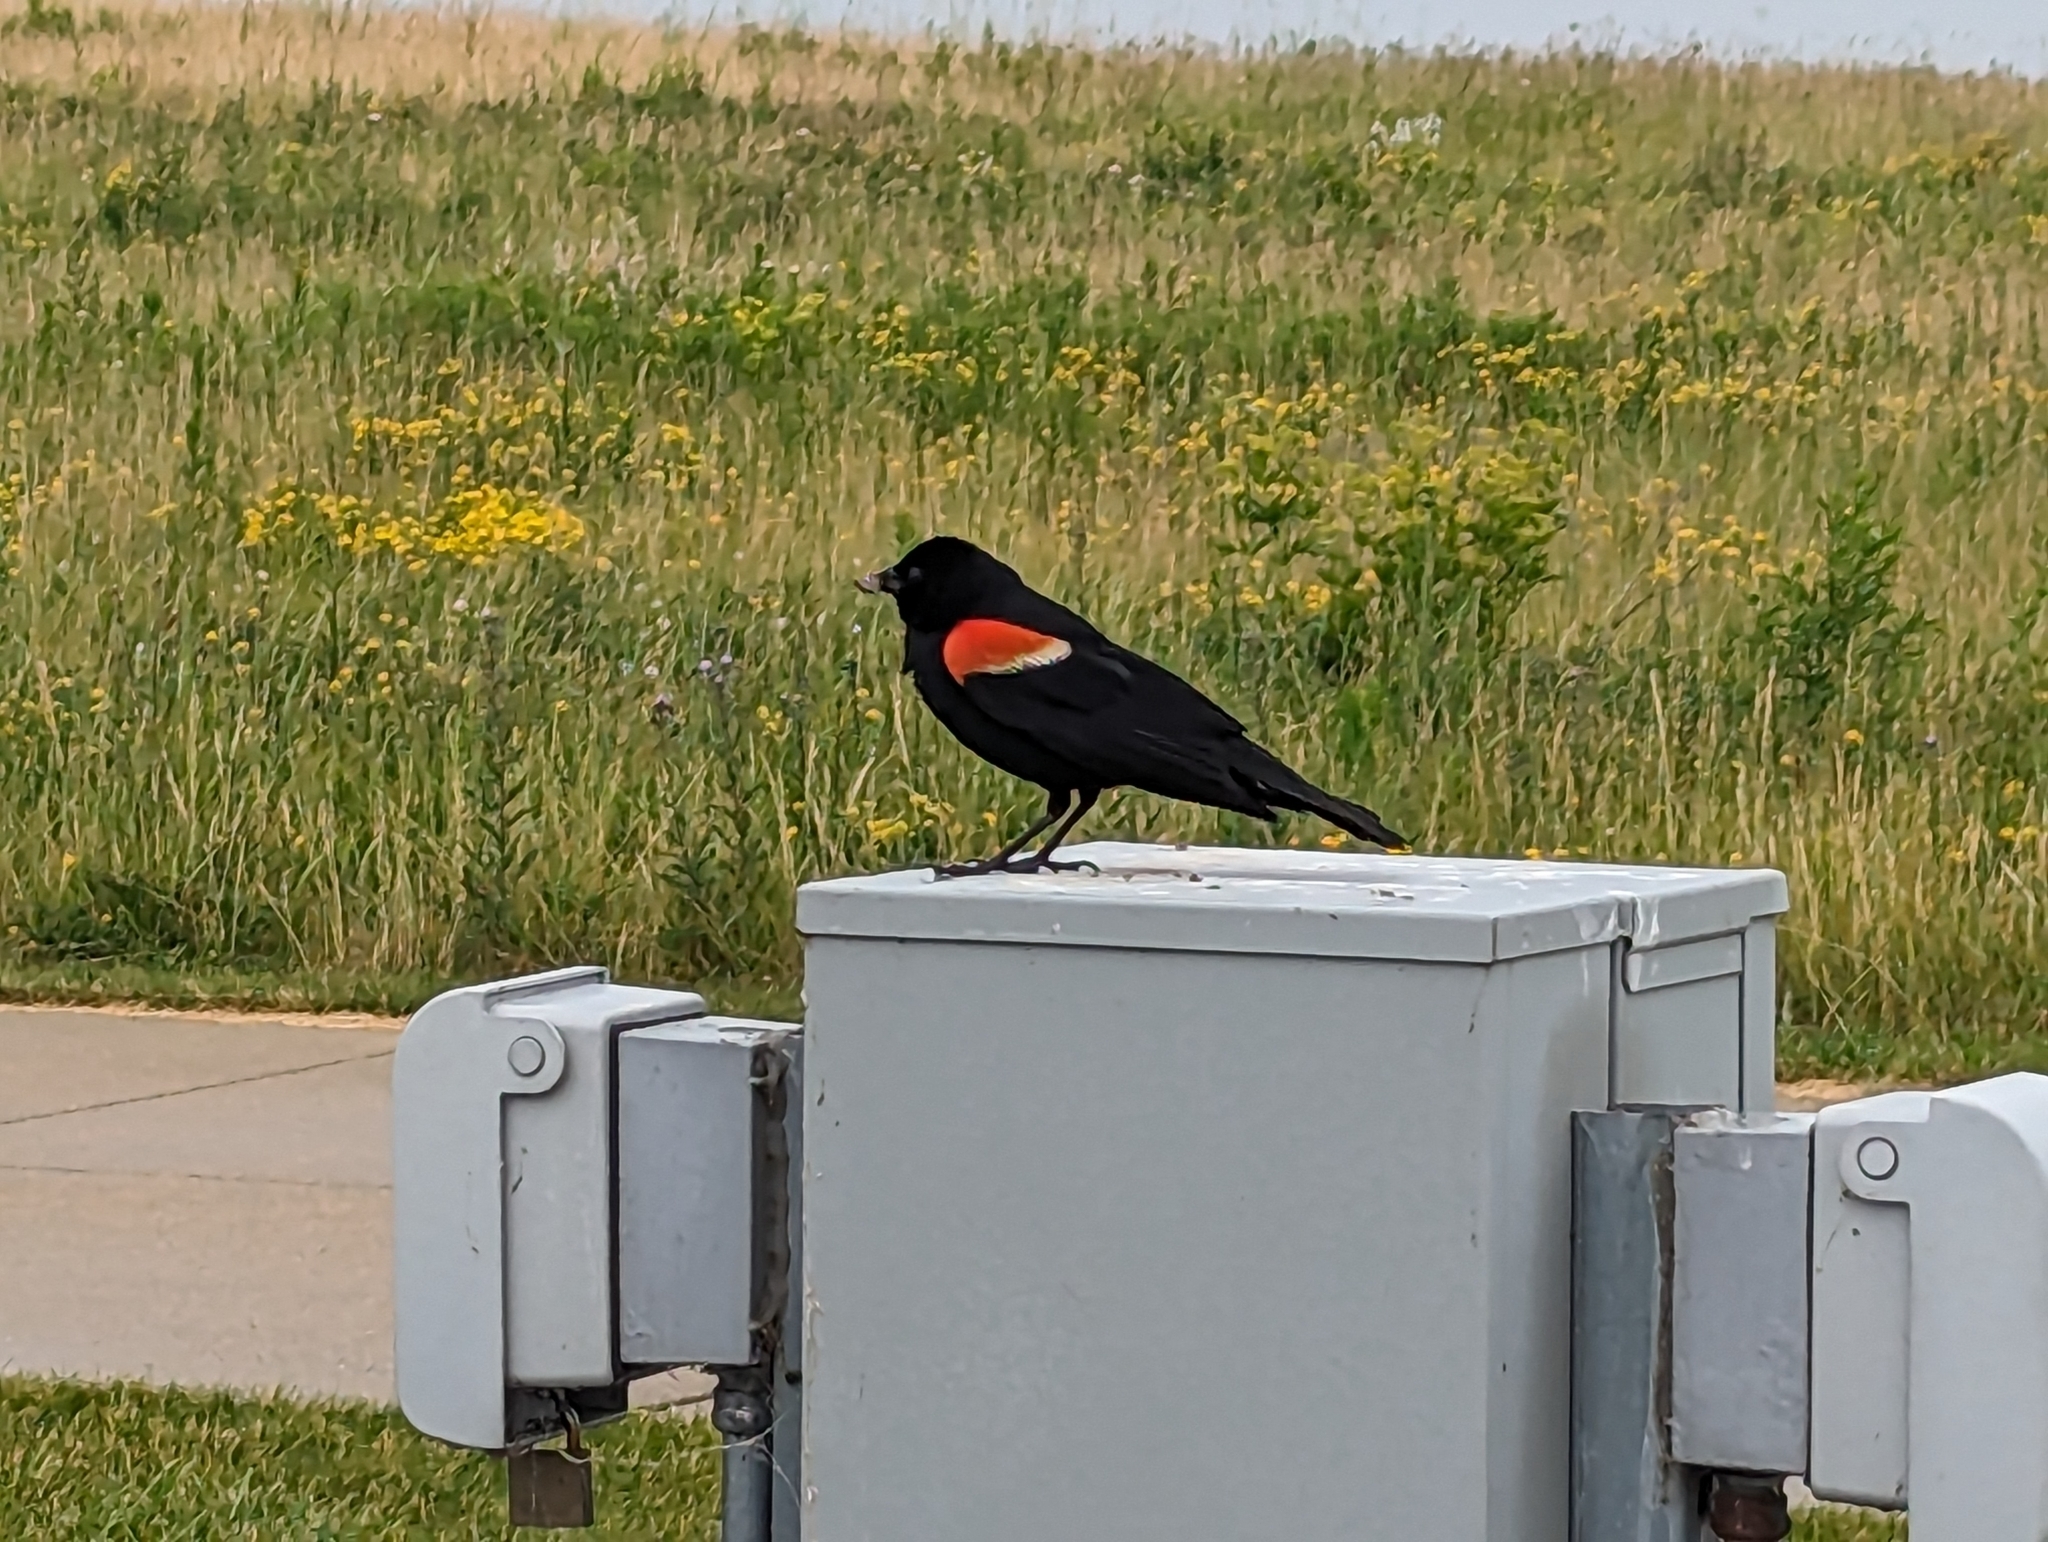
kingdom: Animalia
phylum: Chordata
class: Aves
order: Passeriformes
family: Icteridae
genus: Agelaius
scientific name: Agelaius phoeniceus
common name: Red-winged blackbird
